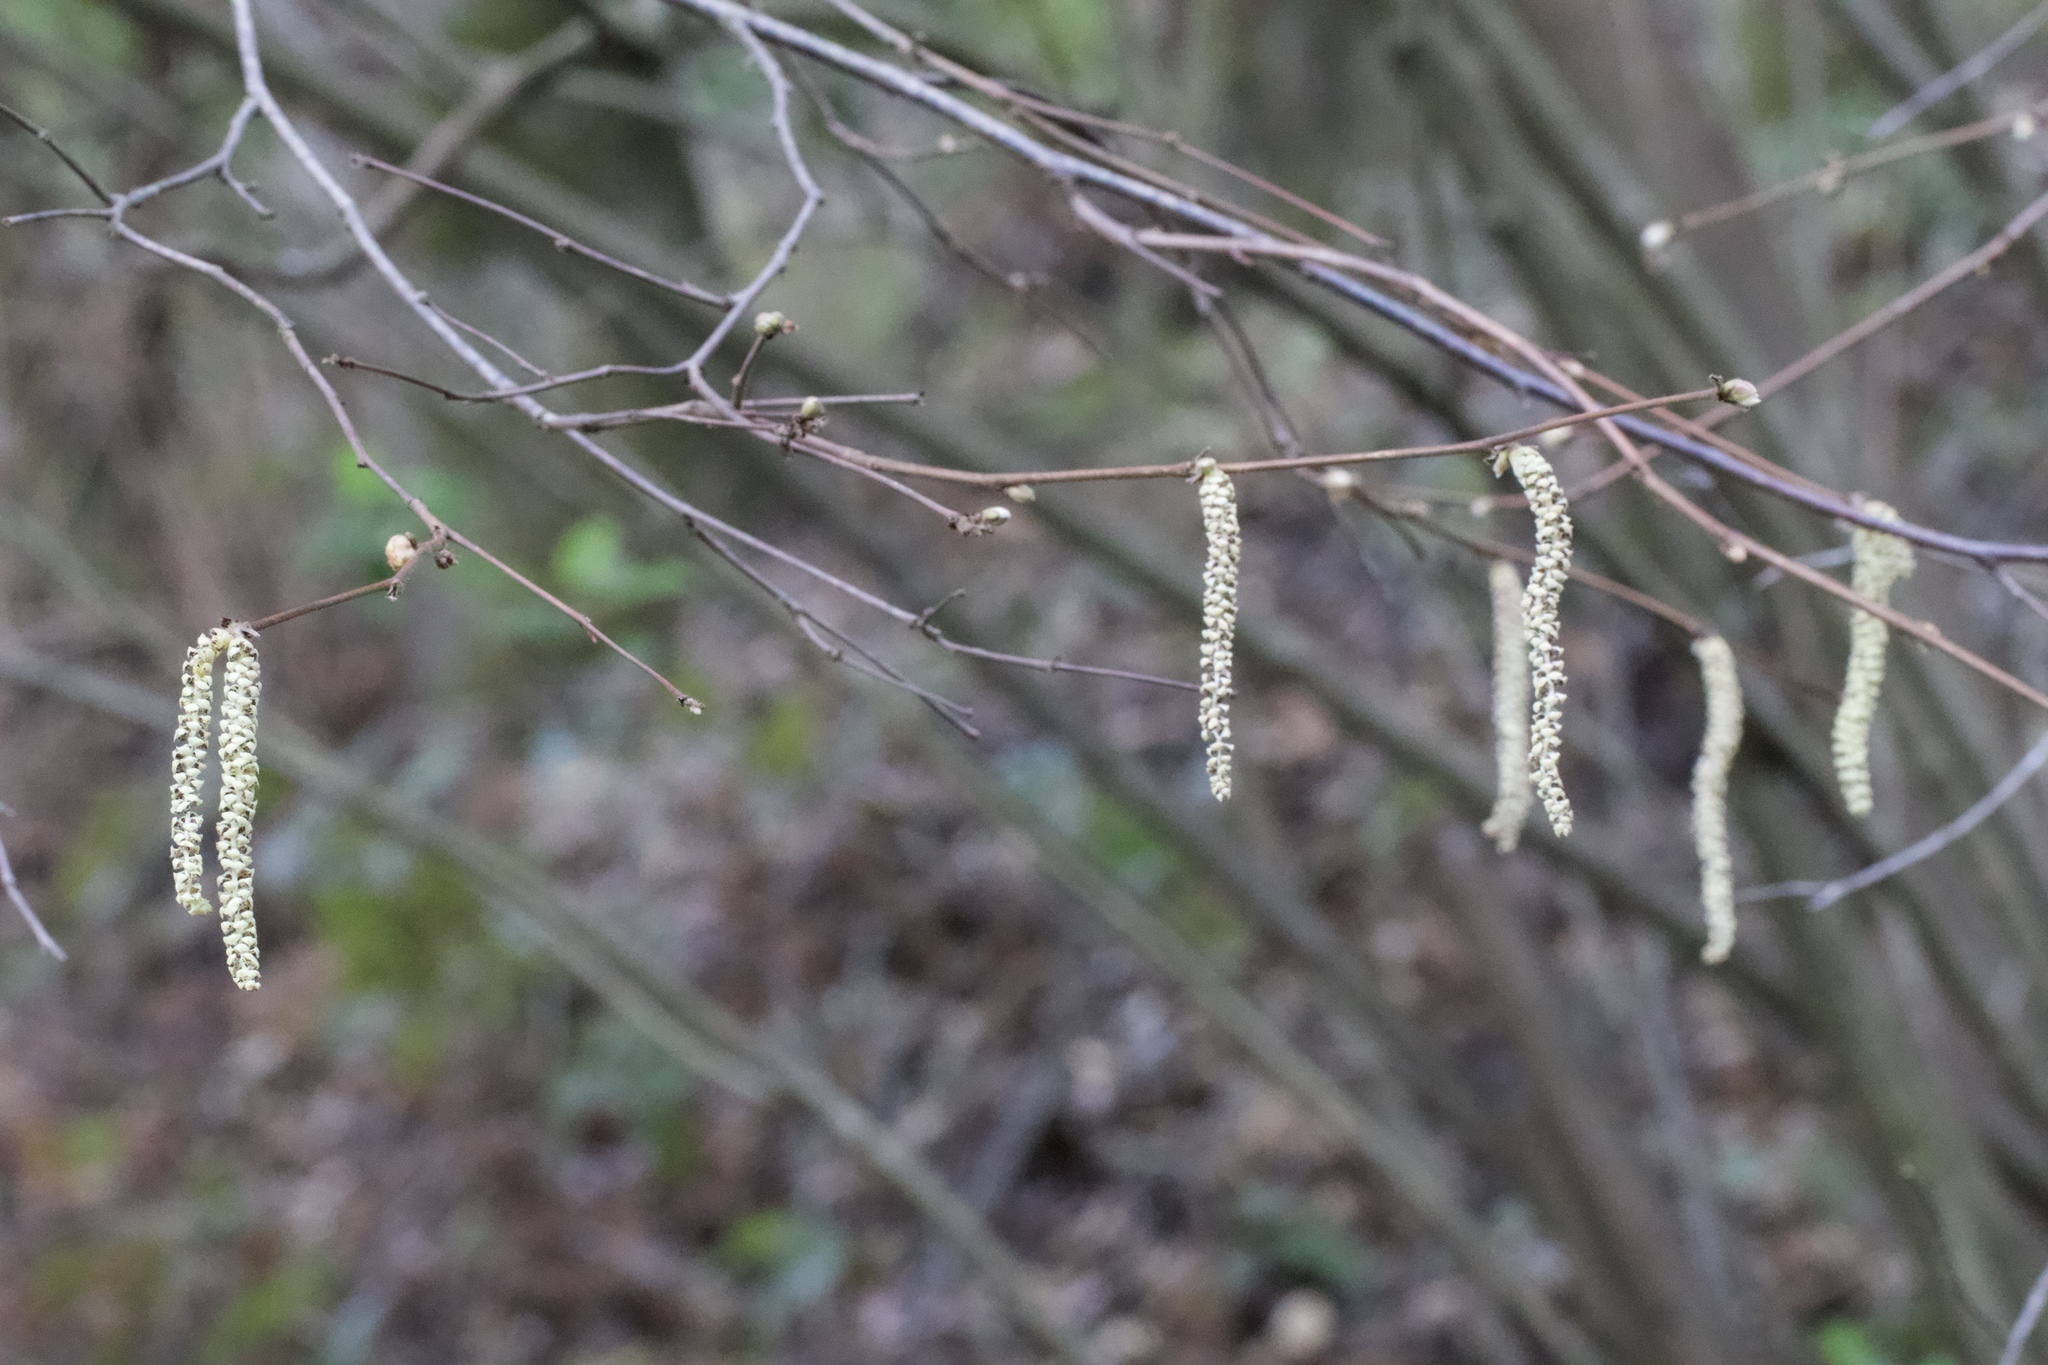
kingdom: Plantae
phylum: Tracheophyta
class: Magnoliopsida
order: Fagales
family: Betulaceae
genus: Corylus
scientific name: Corylus cornuta
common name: Beaked hazel
